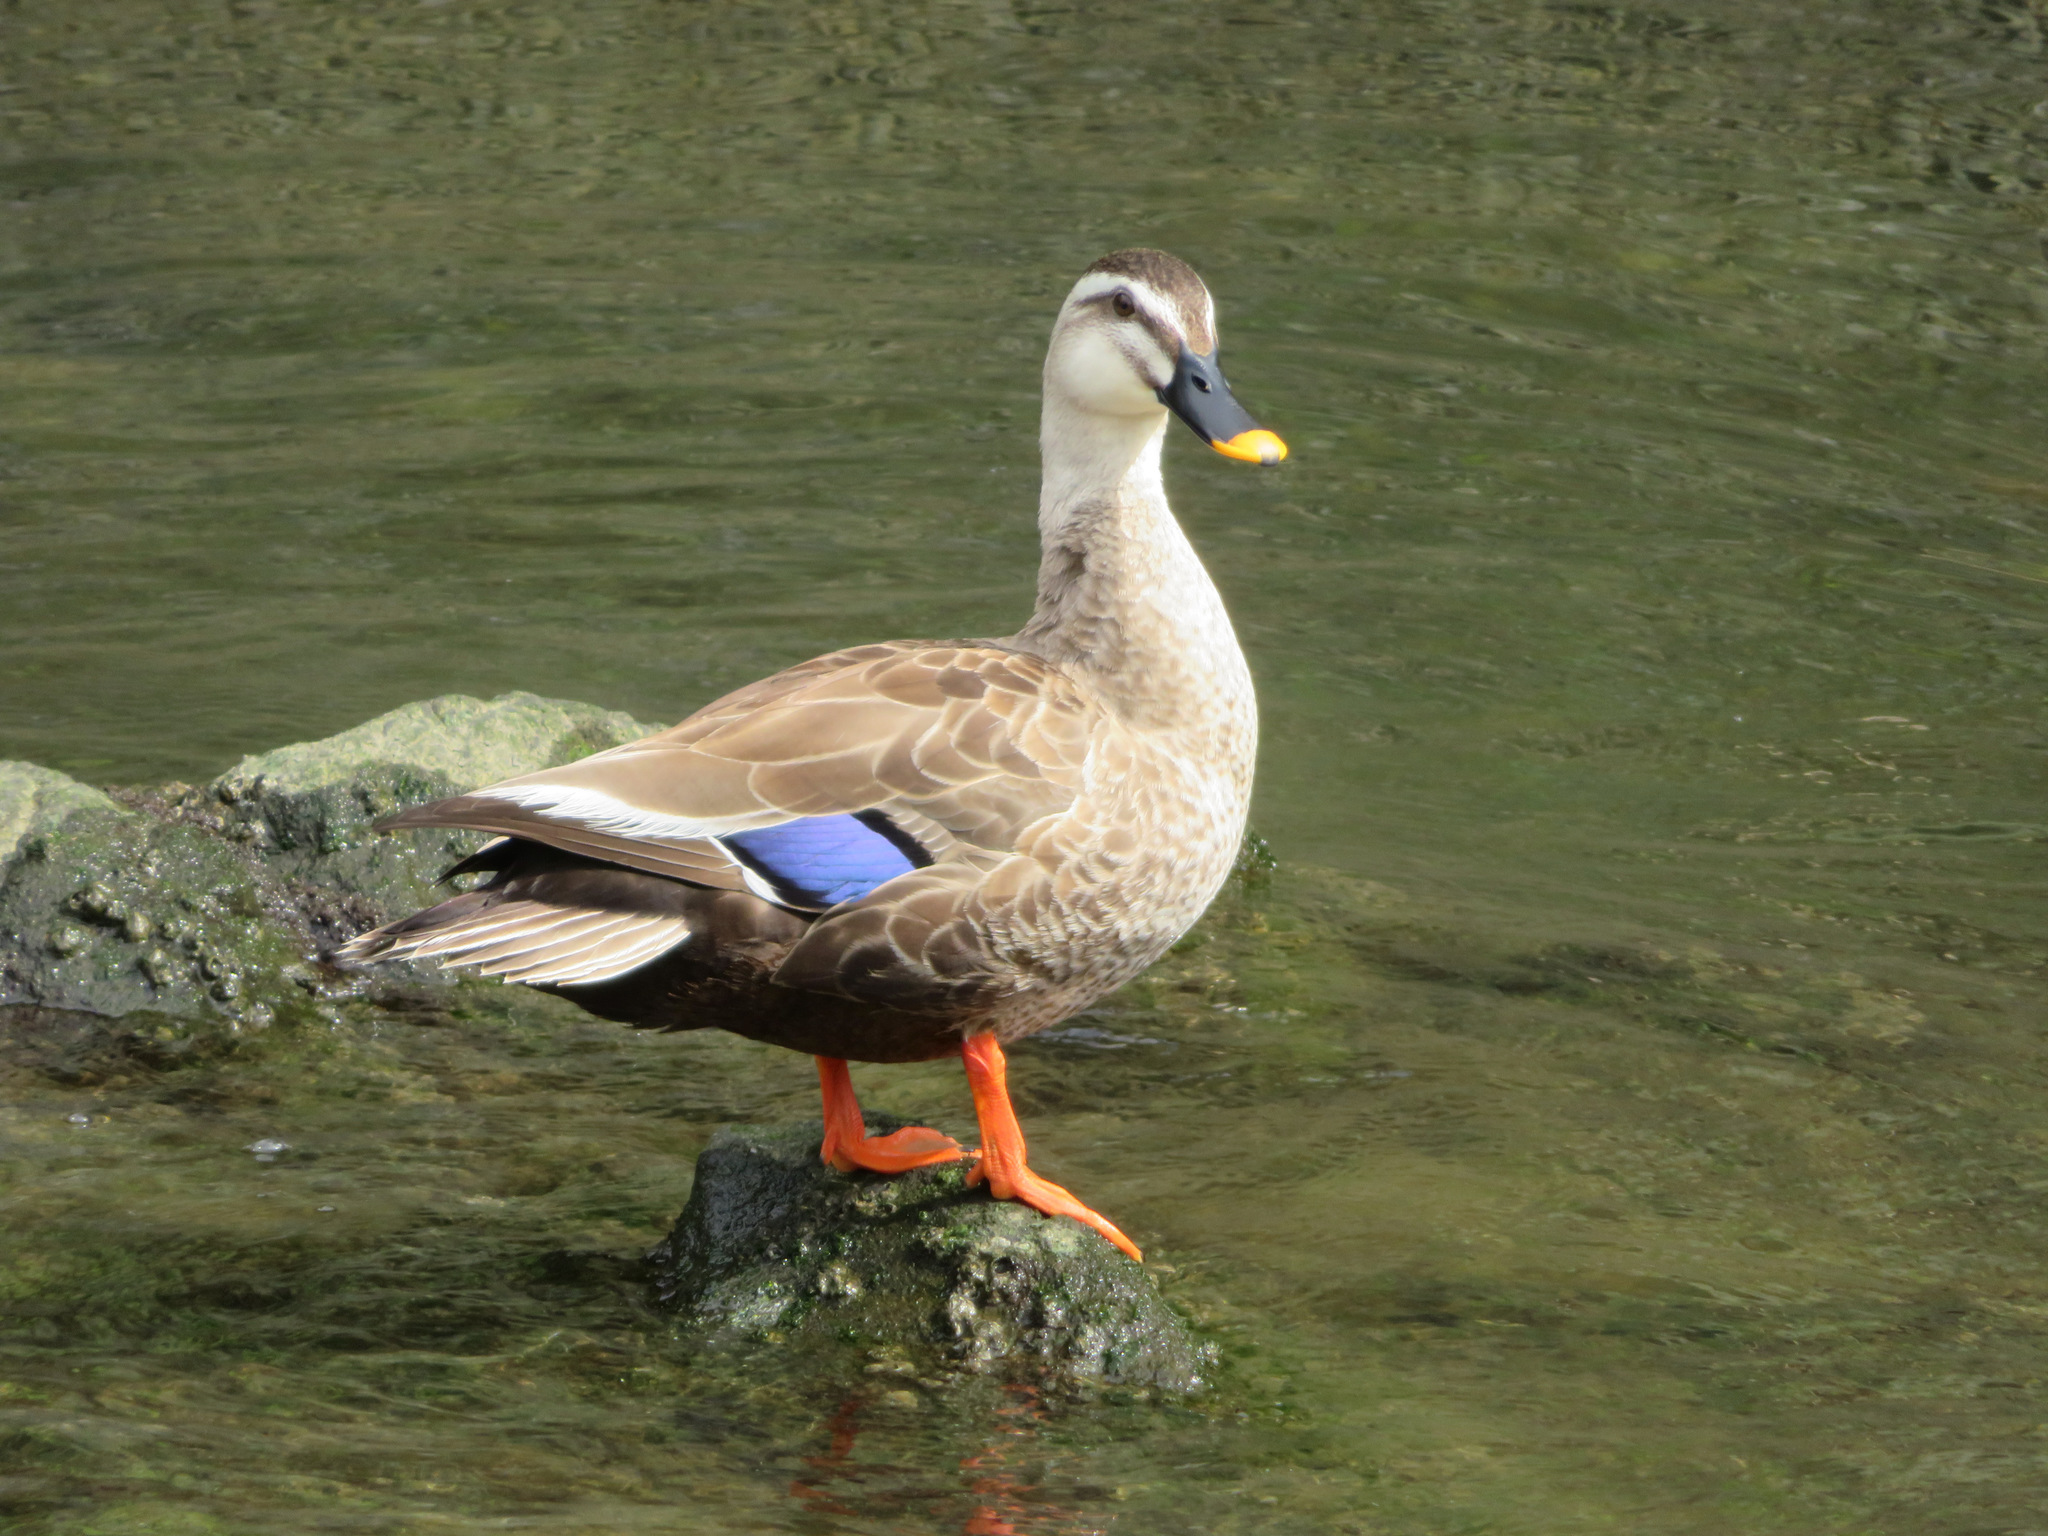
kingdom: Animalia
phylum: Chordata
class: Aves
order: Anseriformes
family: Anatidae
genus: Anas
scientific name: Anas zonorhyncha
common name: Eastern spot-billed duck
